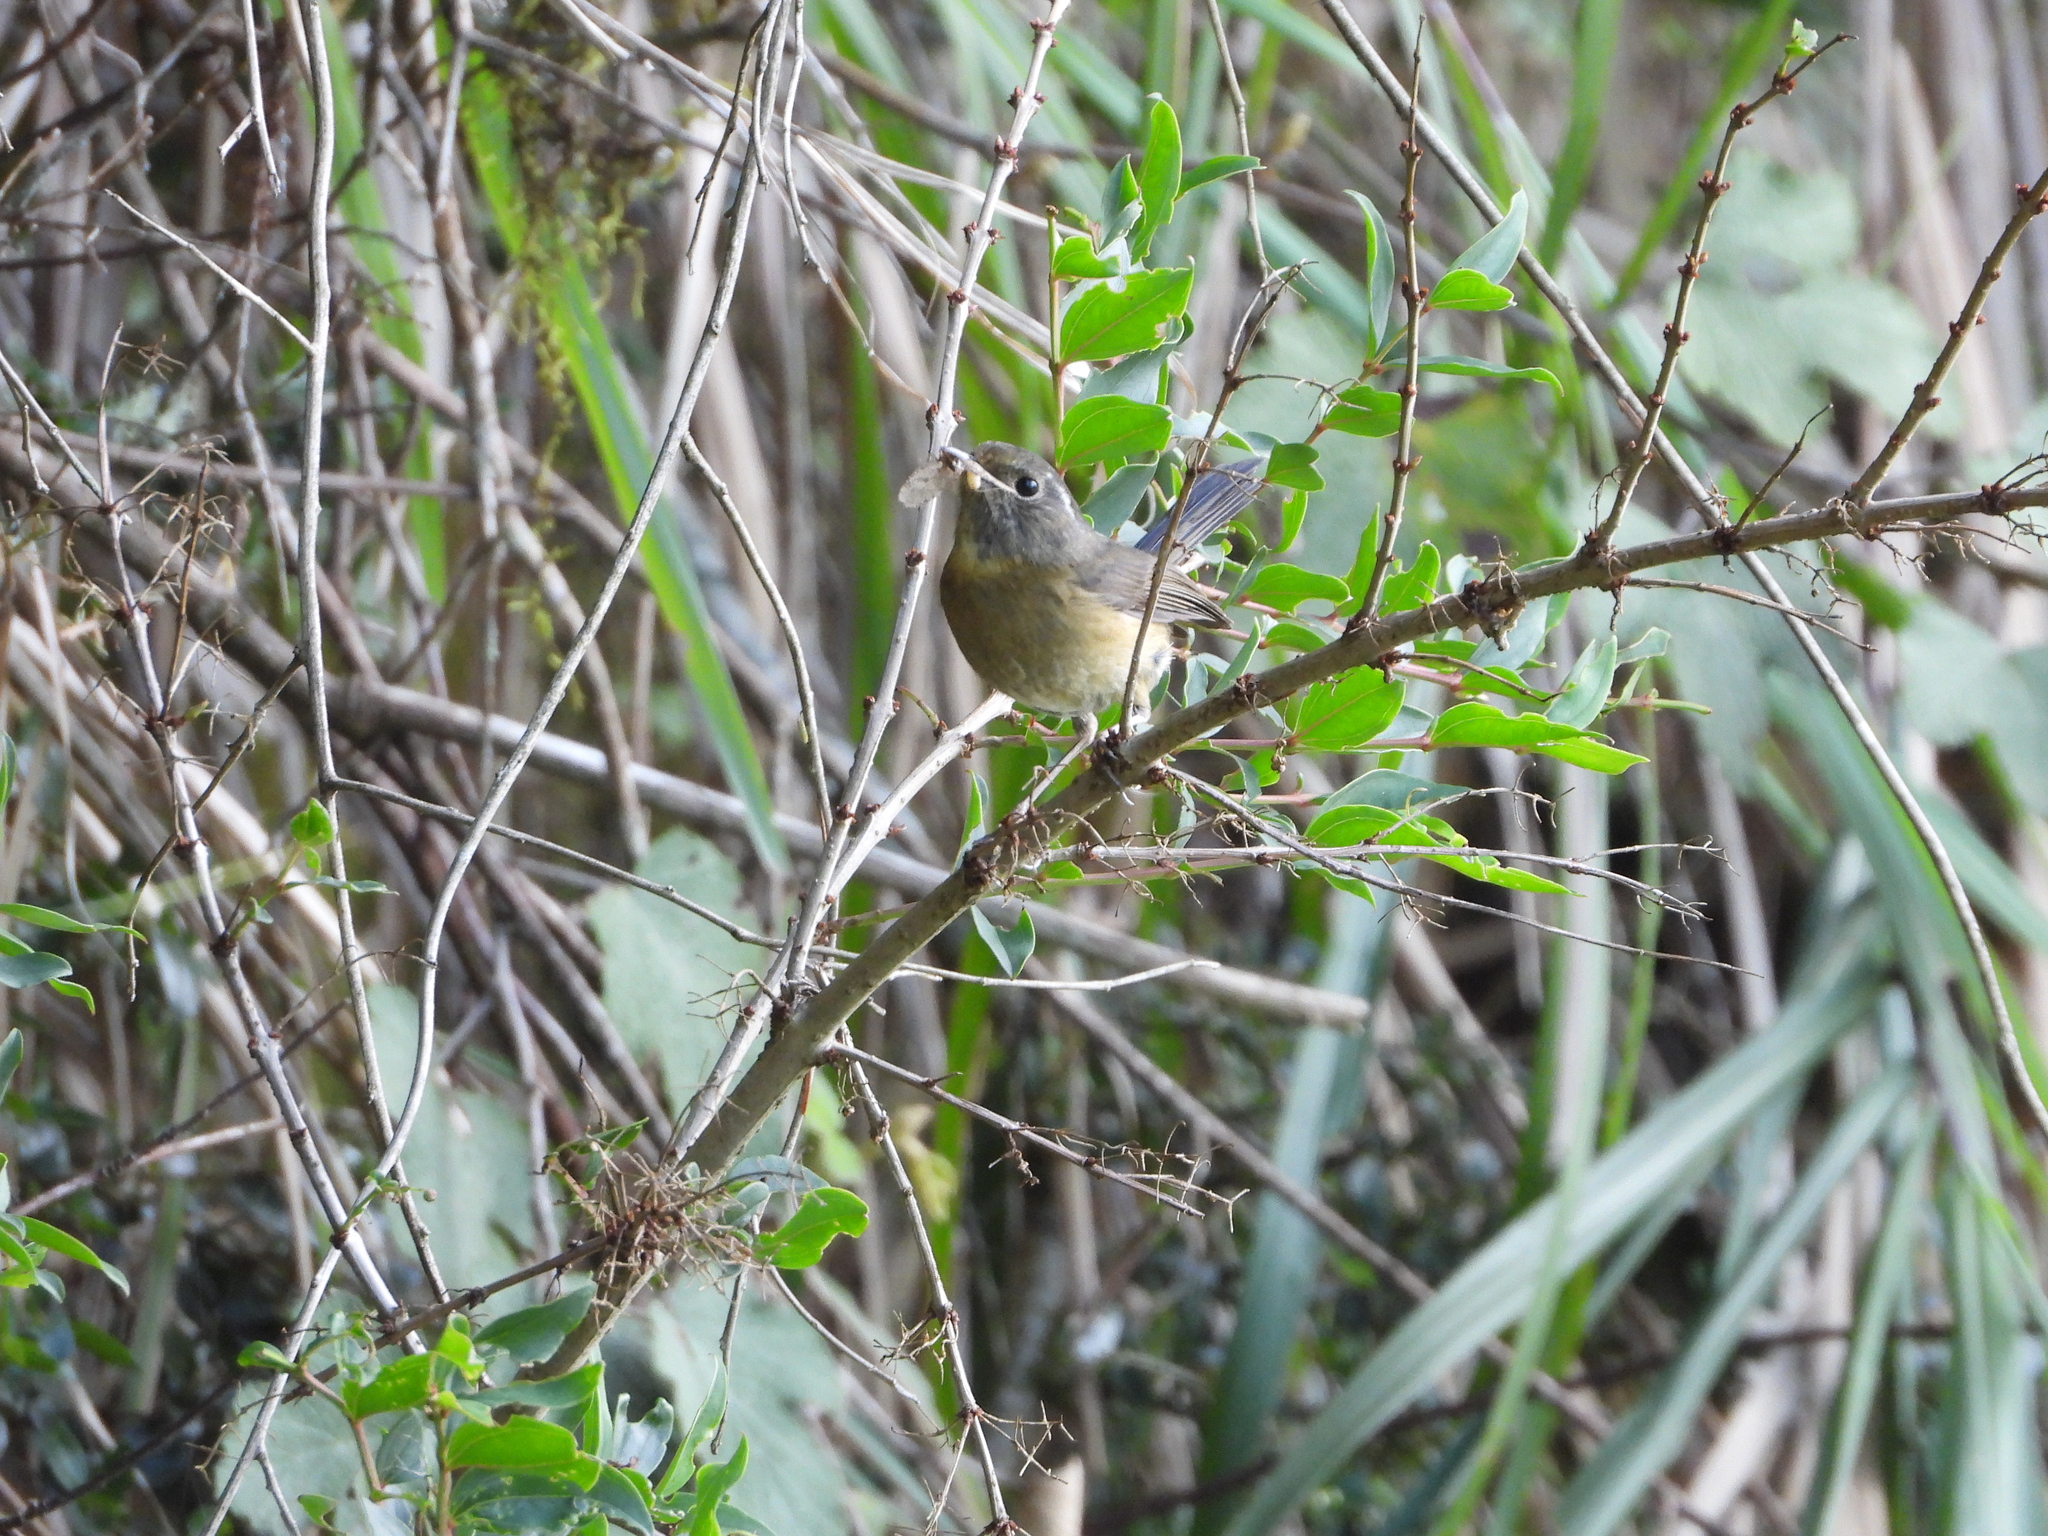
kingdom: Animalia
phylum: Chordata
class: Aves
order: Passeriformes
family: Muscicapidae
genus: Tarsiger
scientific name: Tarsiger johnstoniae
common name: Collared bush robin
